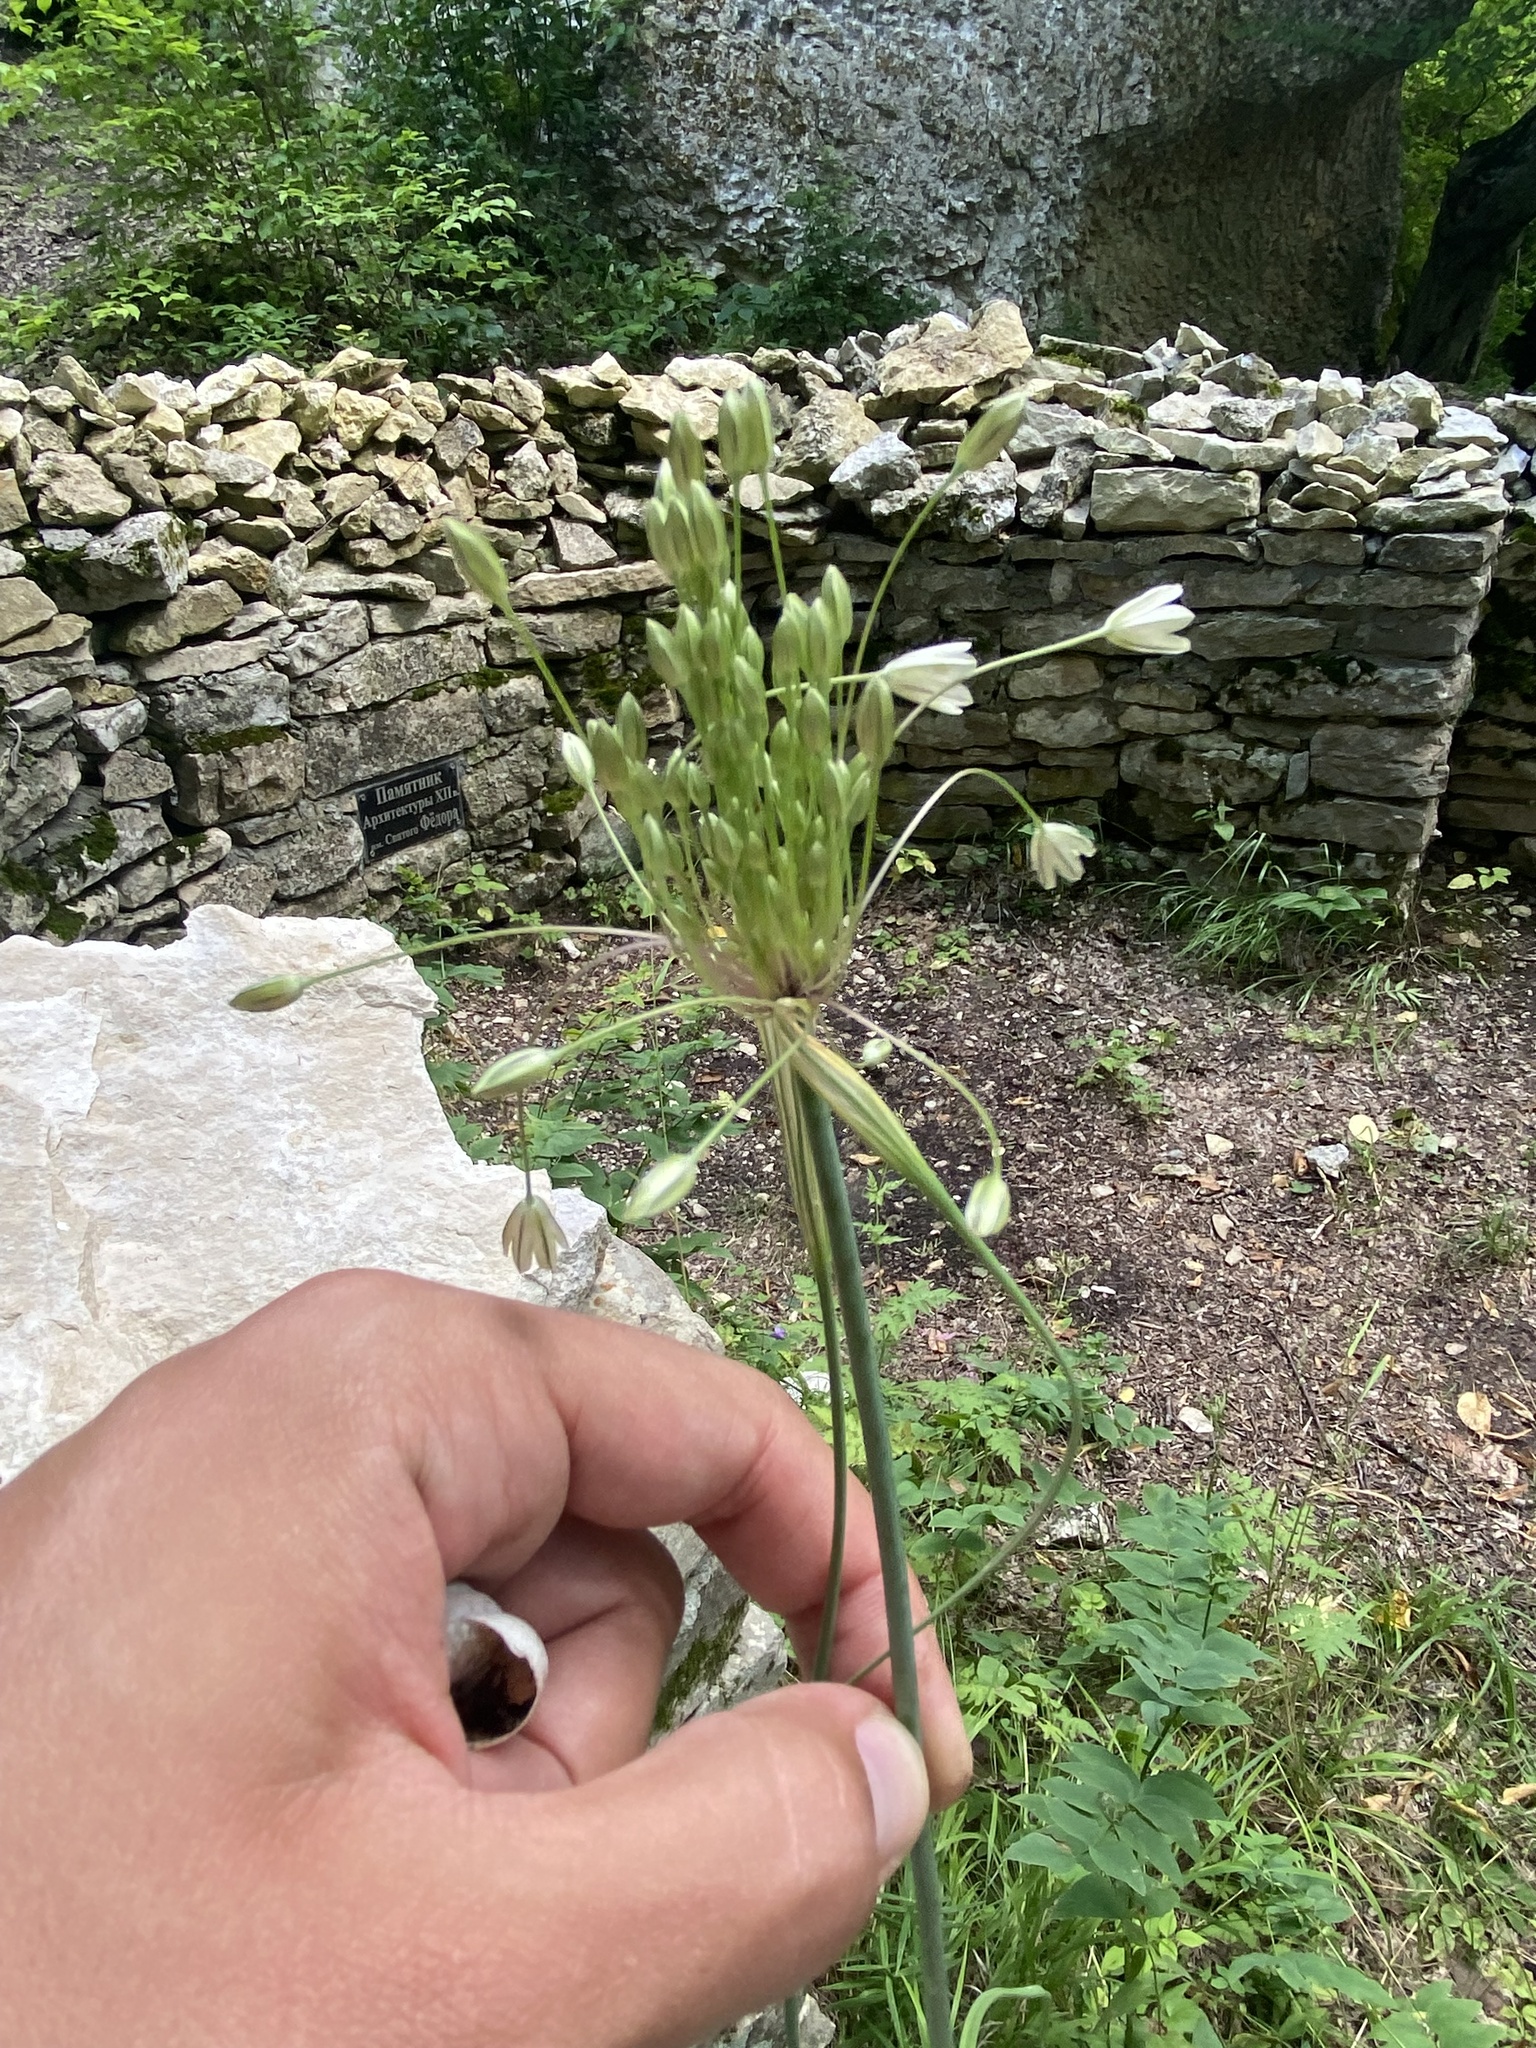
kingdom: Plantae
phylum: Tracheophyta
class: Liliopsida
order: Asparagales
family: Amaryllidaceae
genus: Allium
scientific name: Allium paniculatum
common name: Pale garlic
